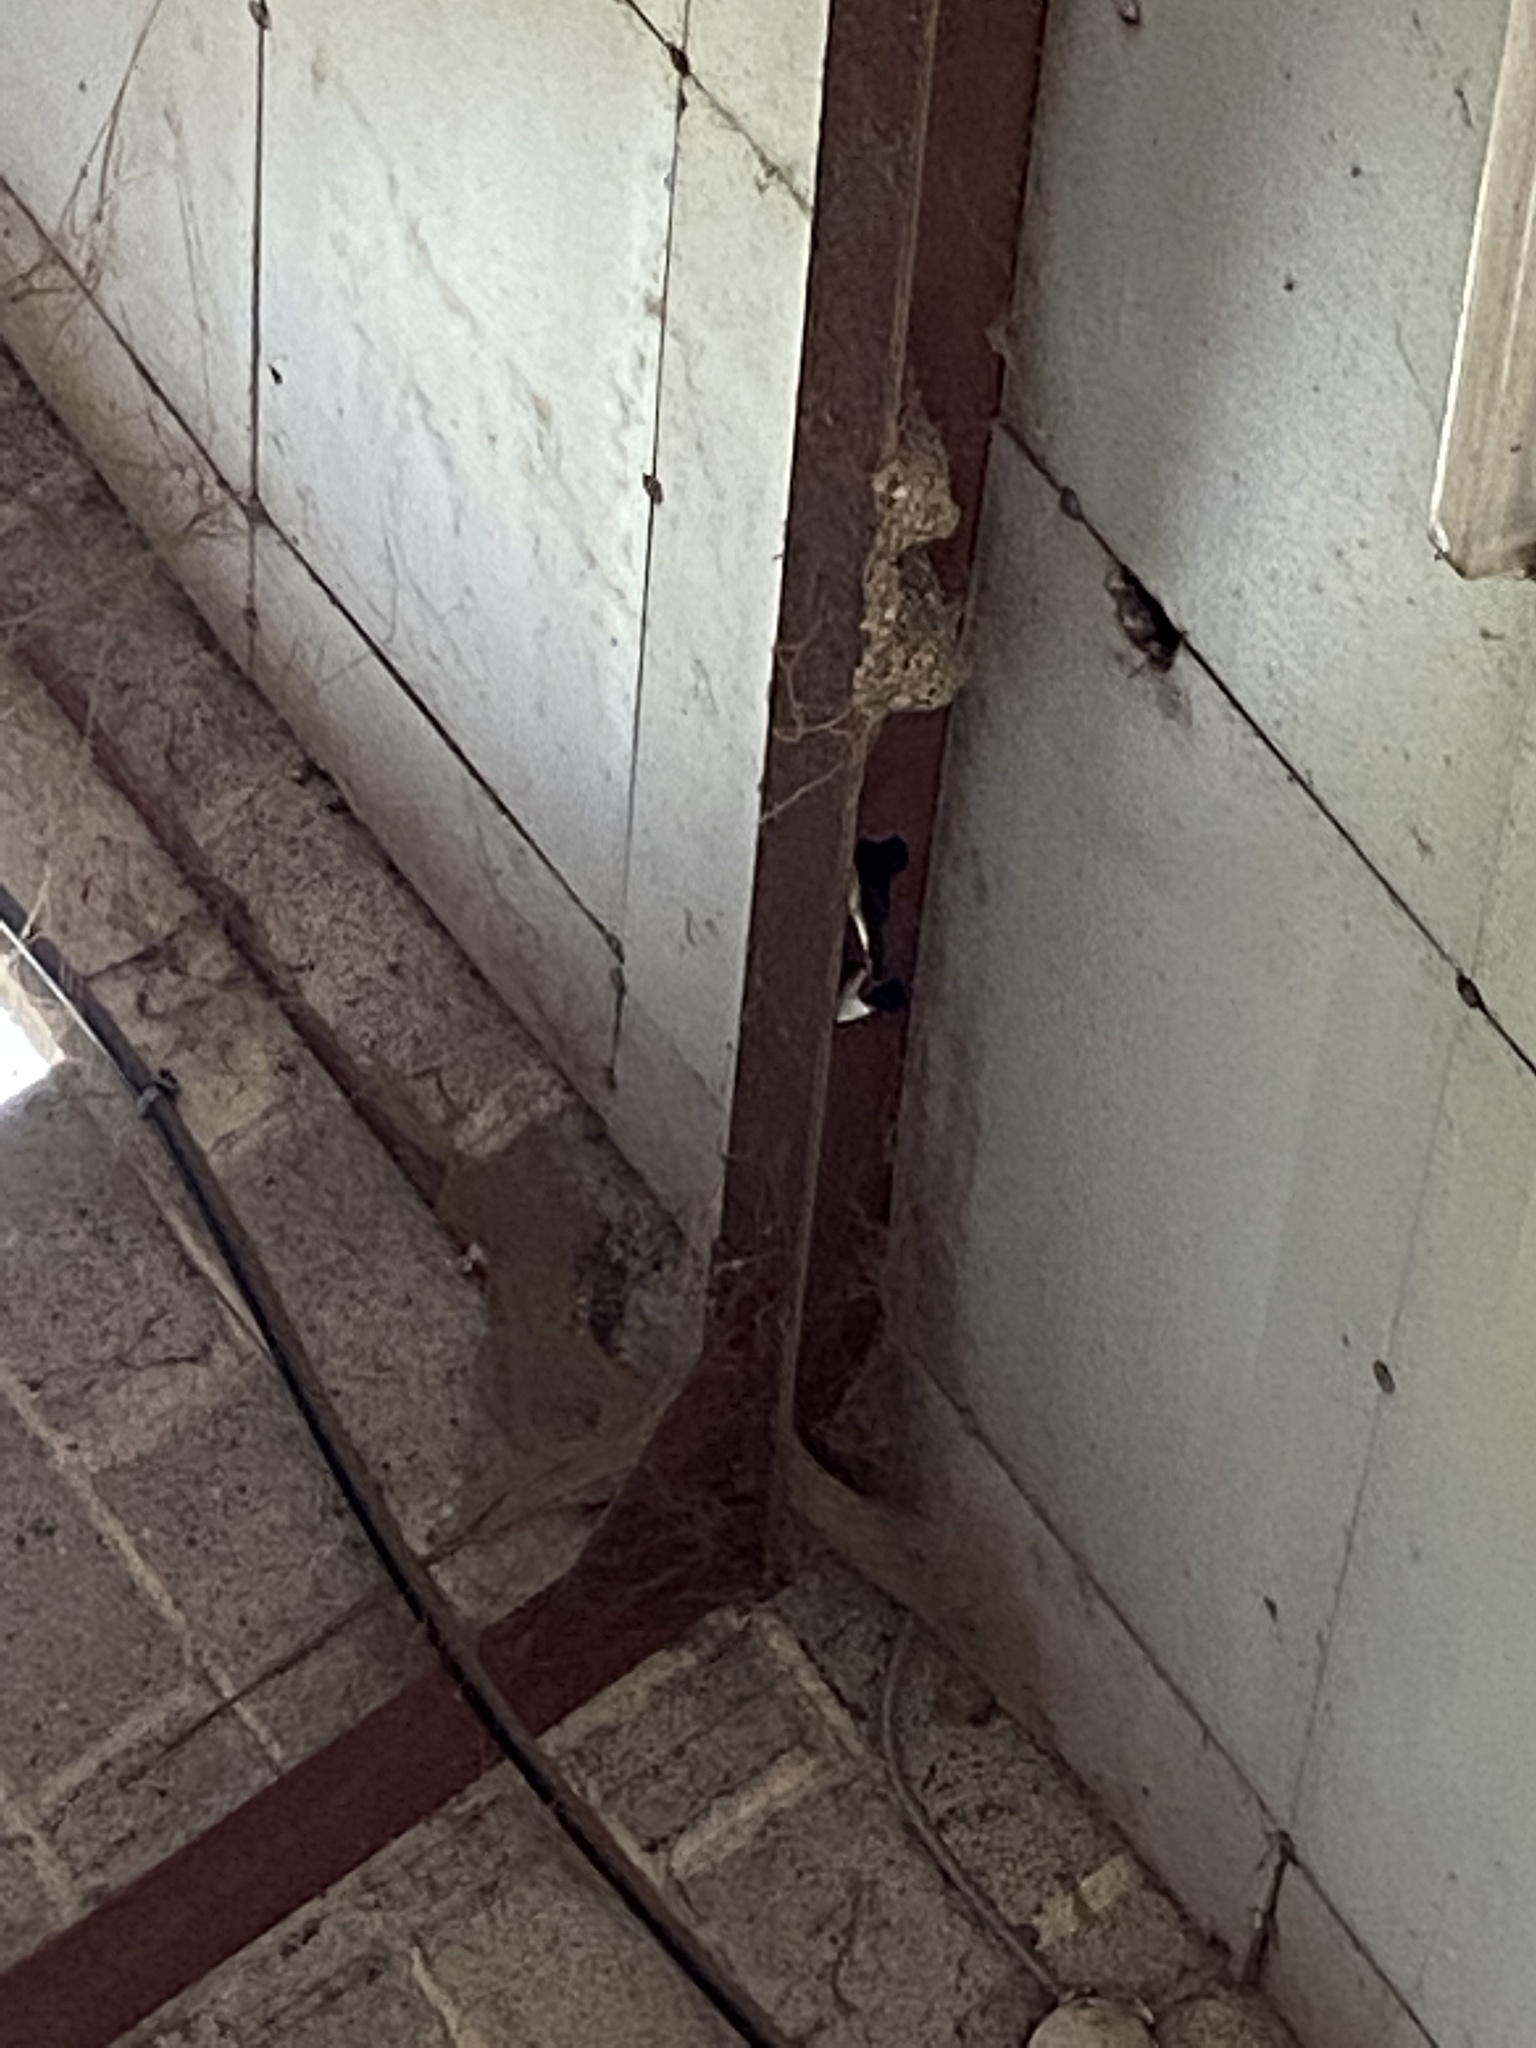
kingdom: Animalia
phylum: Chordata
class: Aves
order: Passeriformes
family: Hirundinidae
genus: Hirundo
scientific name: Hirundo rustica
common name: Barn swallow
